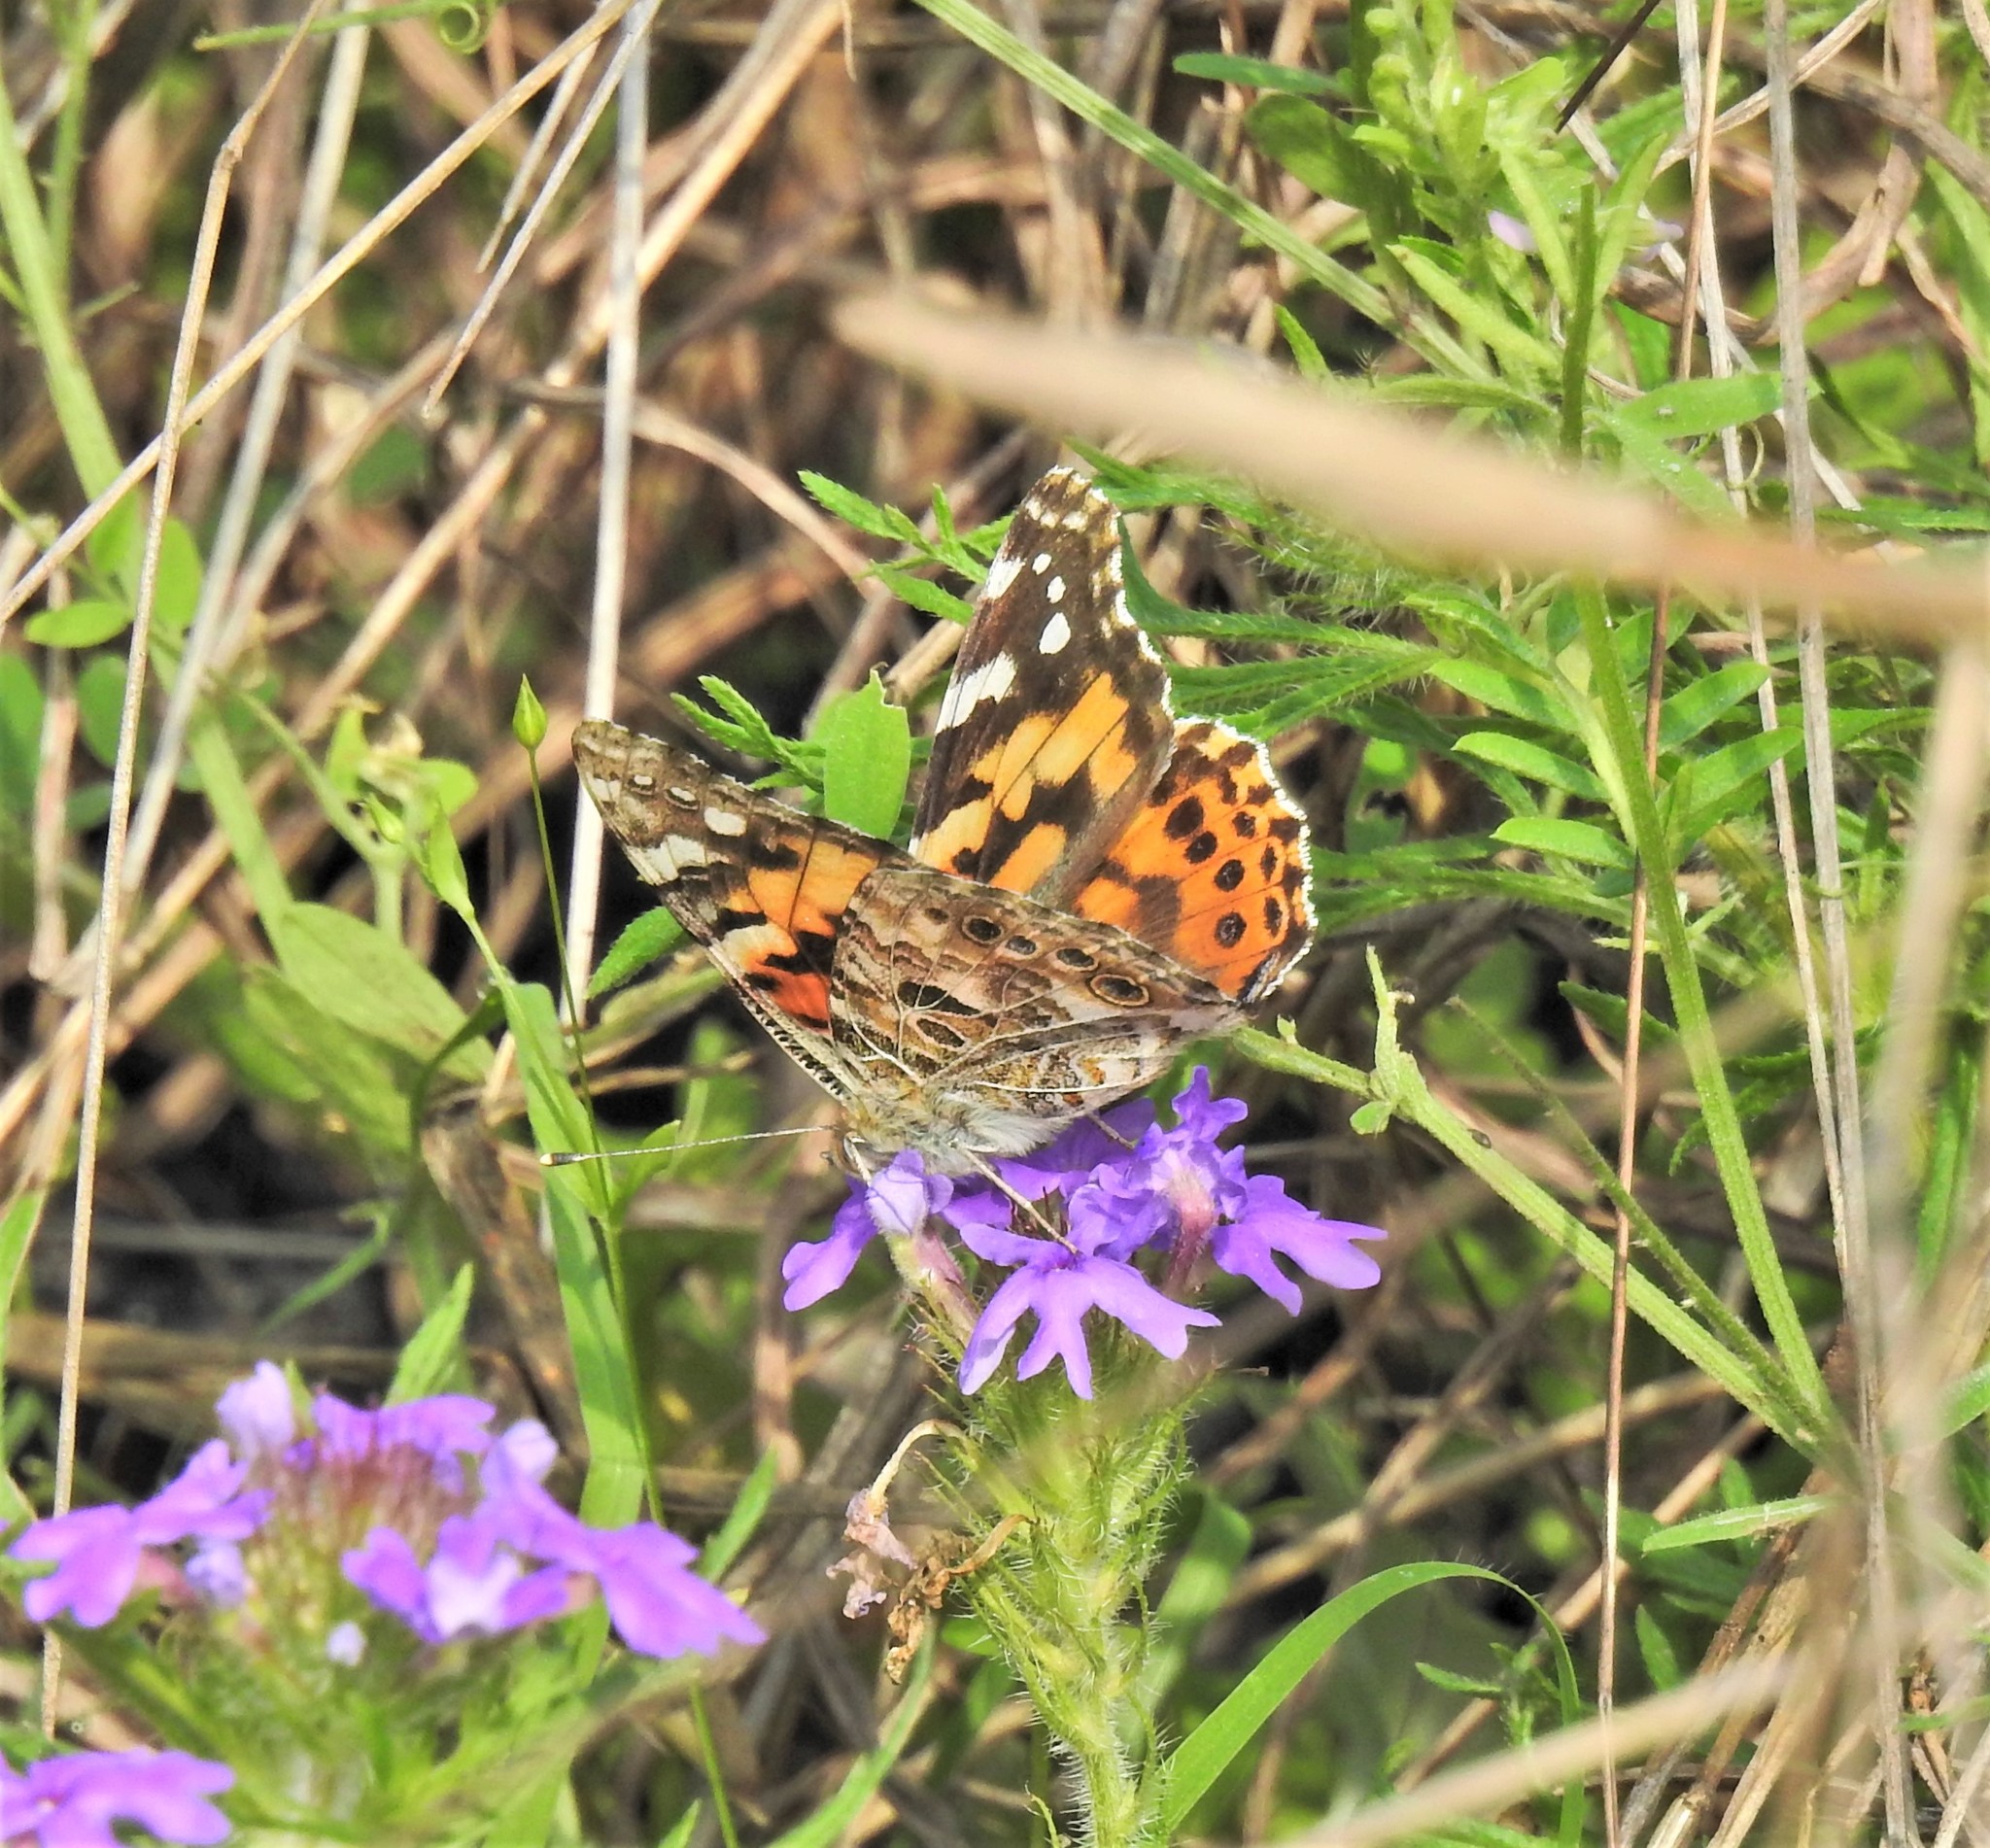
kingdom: Animalia
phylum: Arthropoda
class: Insecta
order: Lepidoptera
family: Nymphalidae
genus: Vanessa
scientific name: Vanessa cardui
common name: Painted lady
